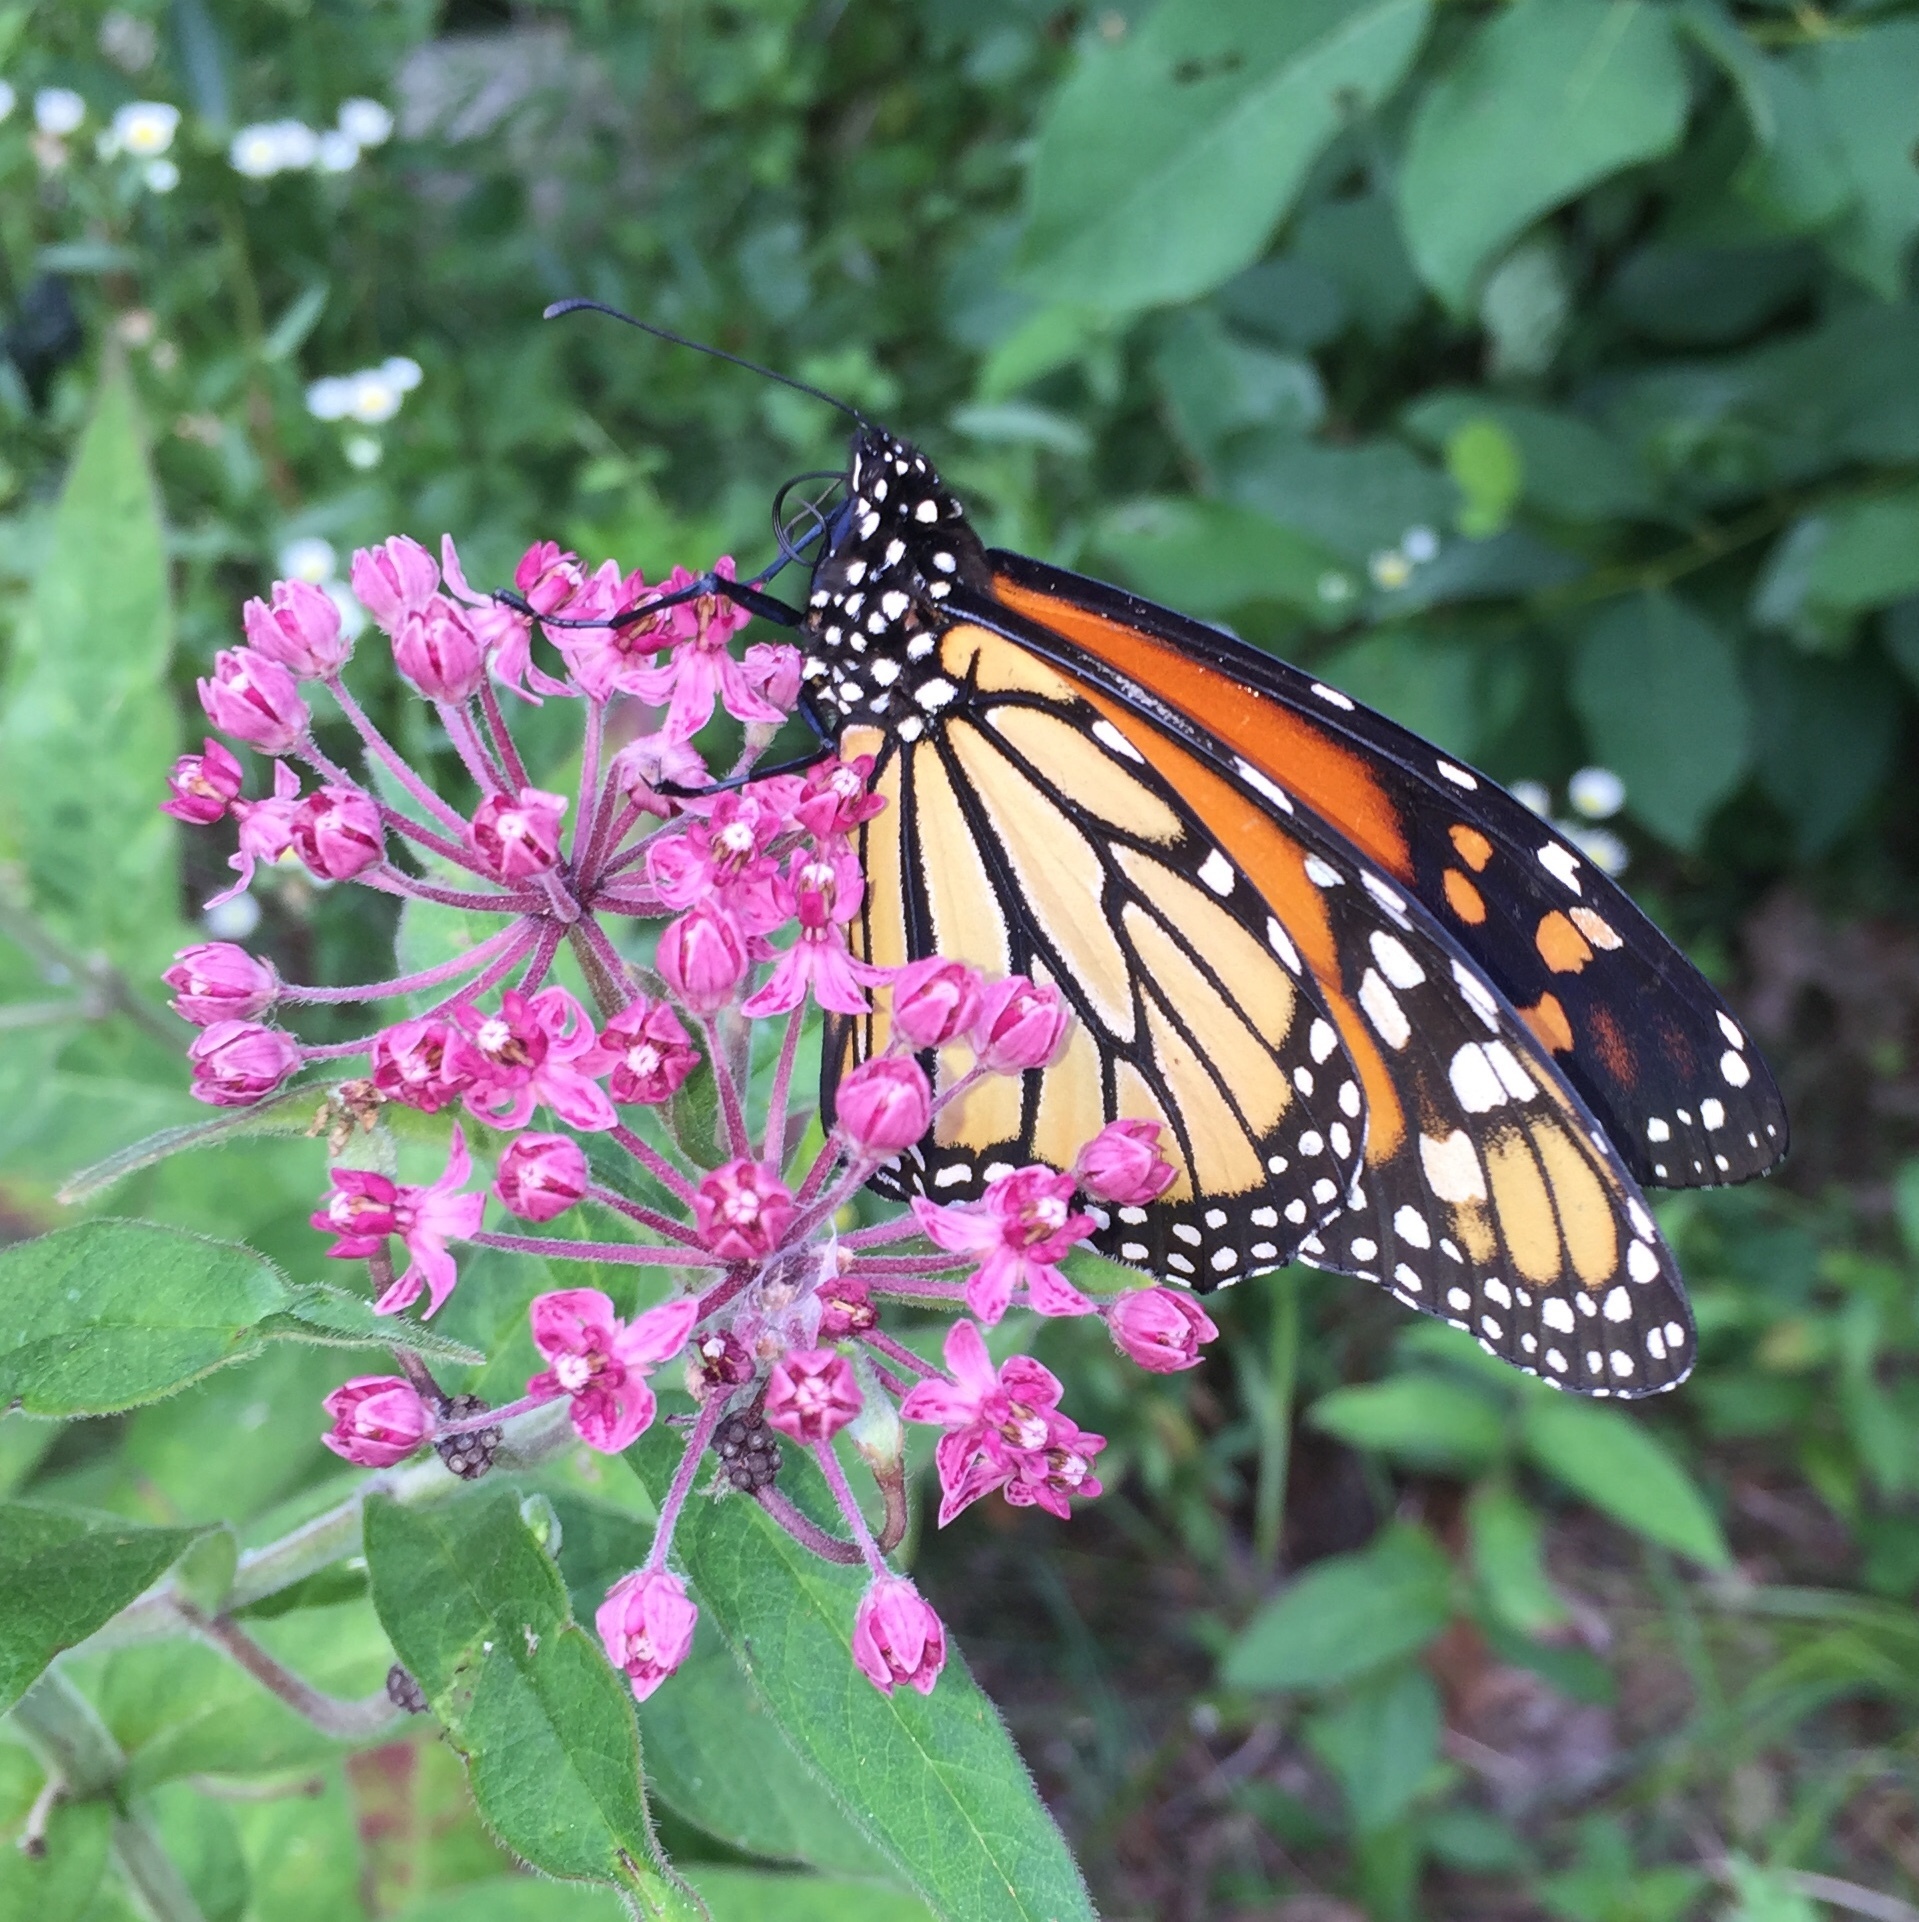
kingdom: Animalia
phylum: Arthropoda
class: Insecta
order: Lepidoptera
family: Nymphalidae
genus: Danaus
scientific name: Danaus plexippus
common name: Monarch
